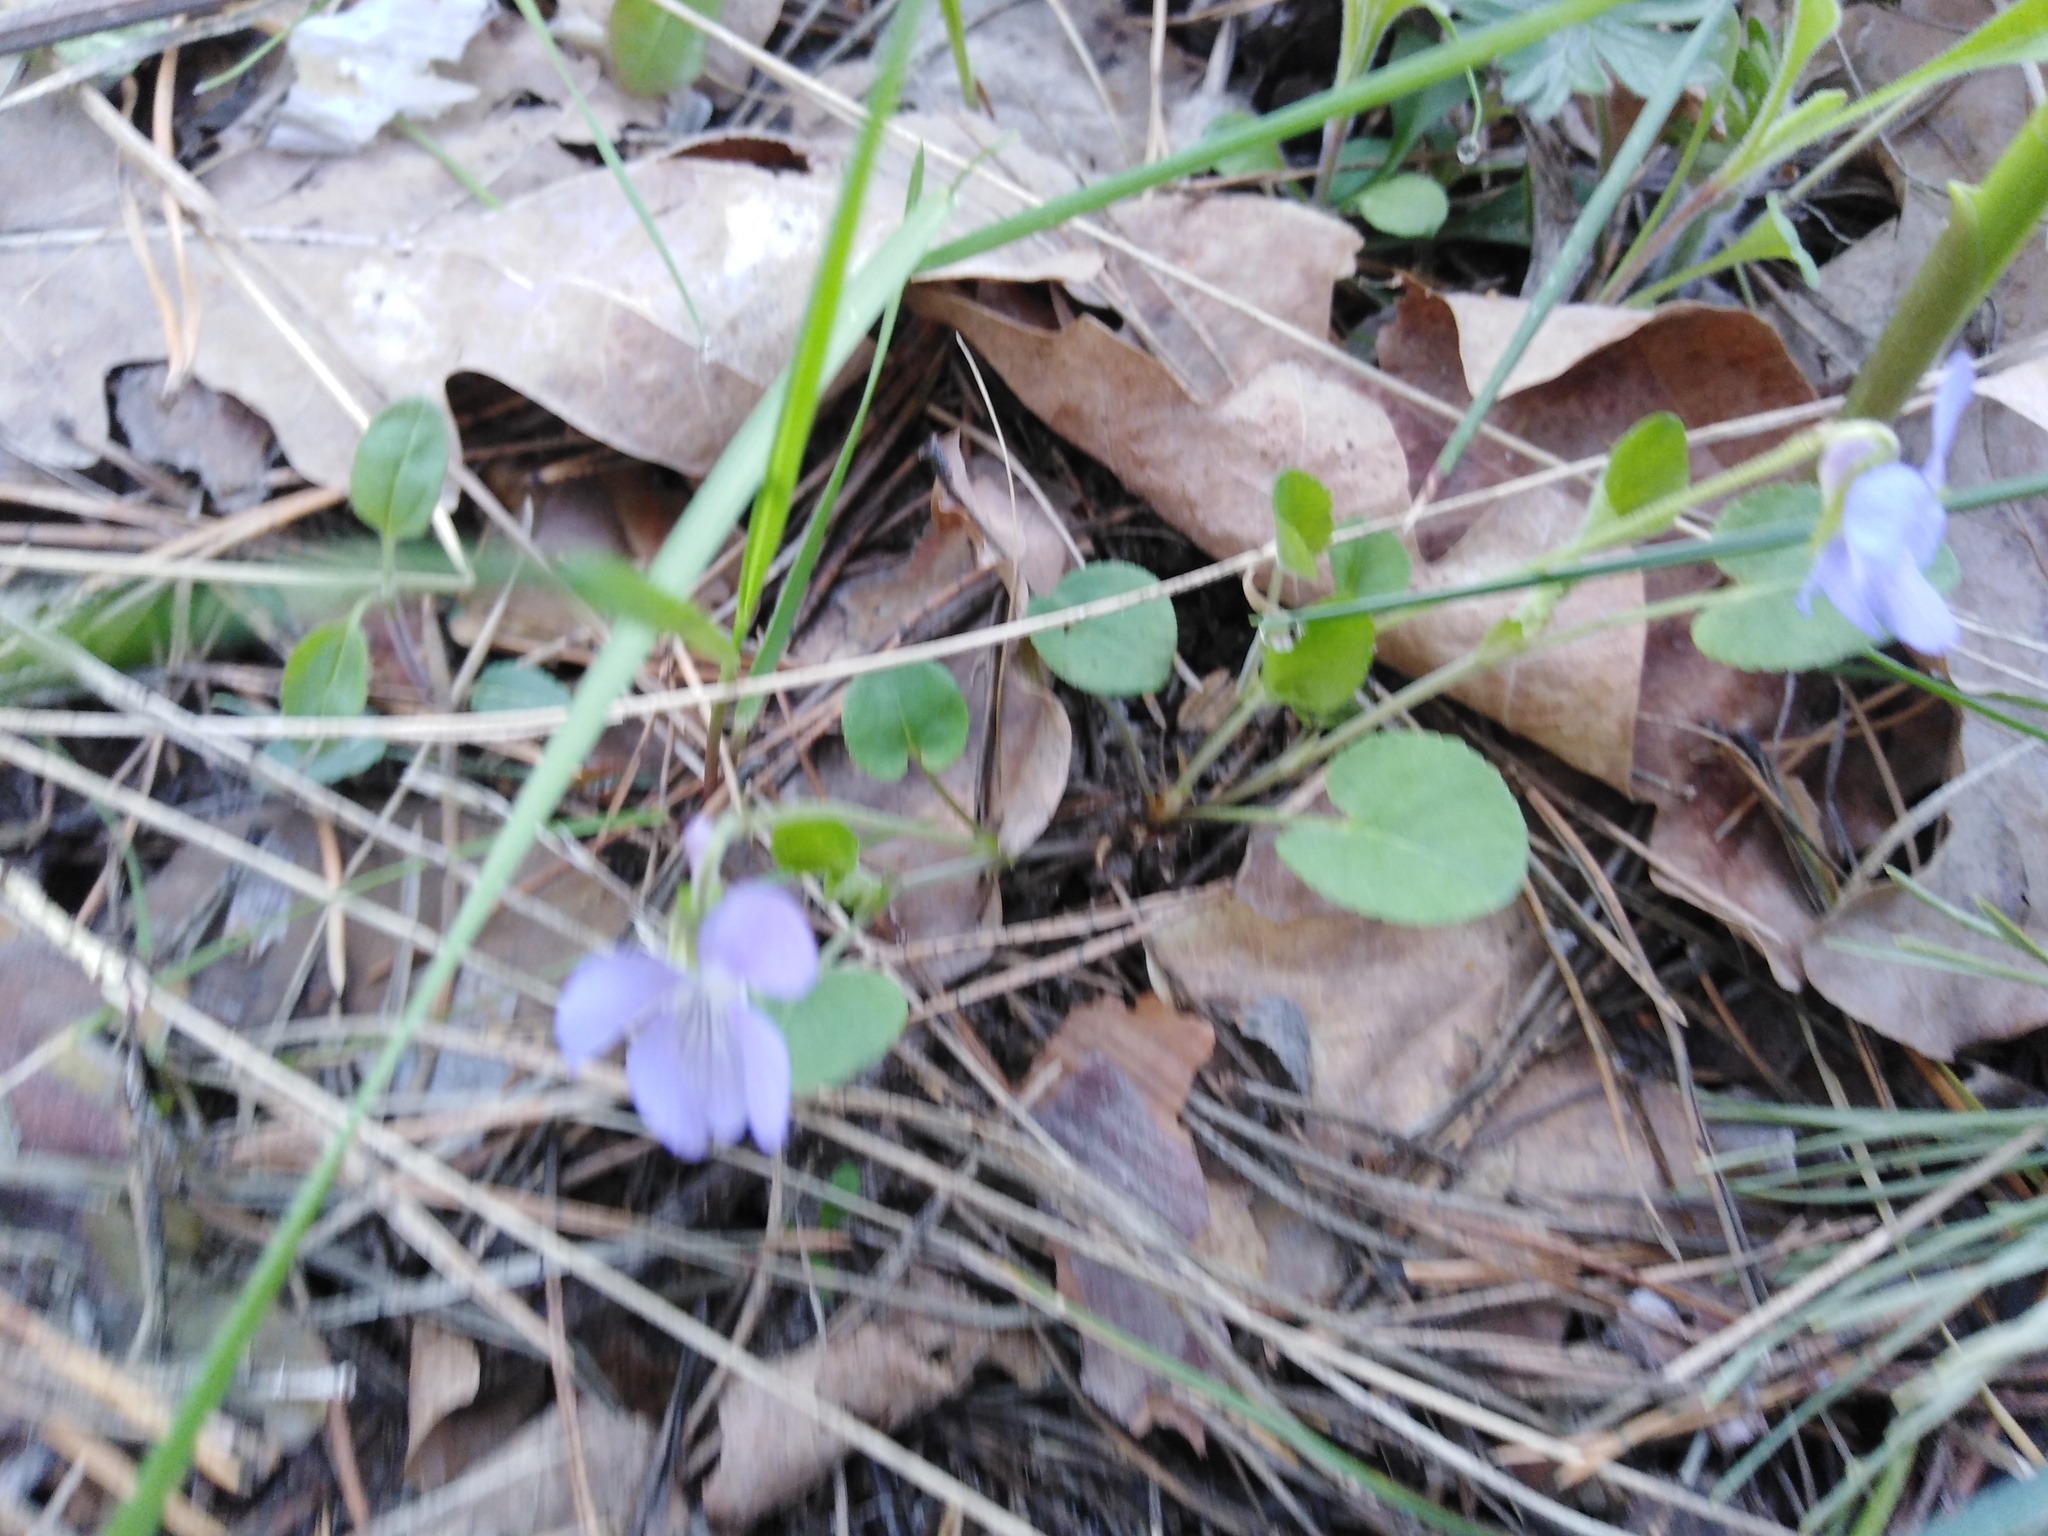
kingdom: Plantae
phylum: Tracheophyta
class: Magnoliopsida
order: Malpighiales
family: Violaceae
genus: Viola
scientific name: Viola rupestris
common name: Teesdale violet
